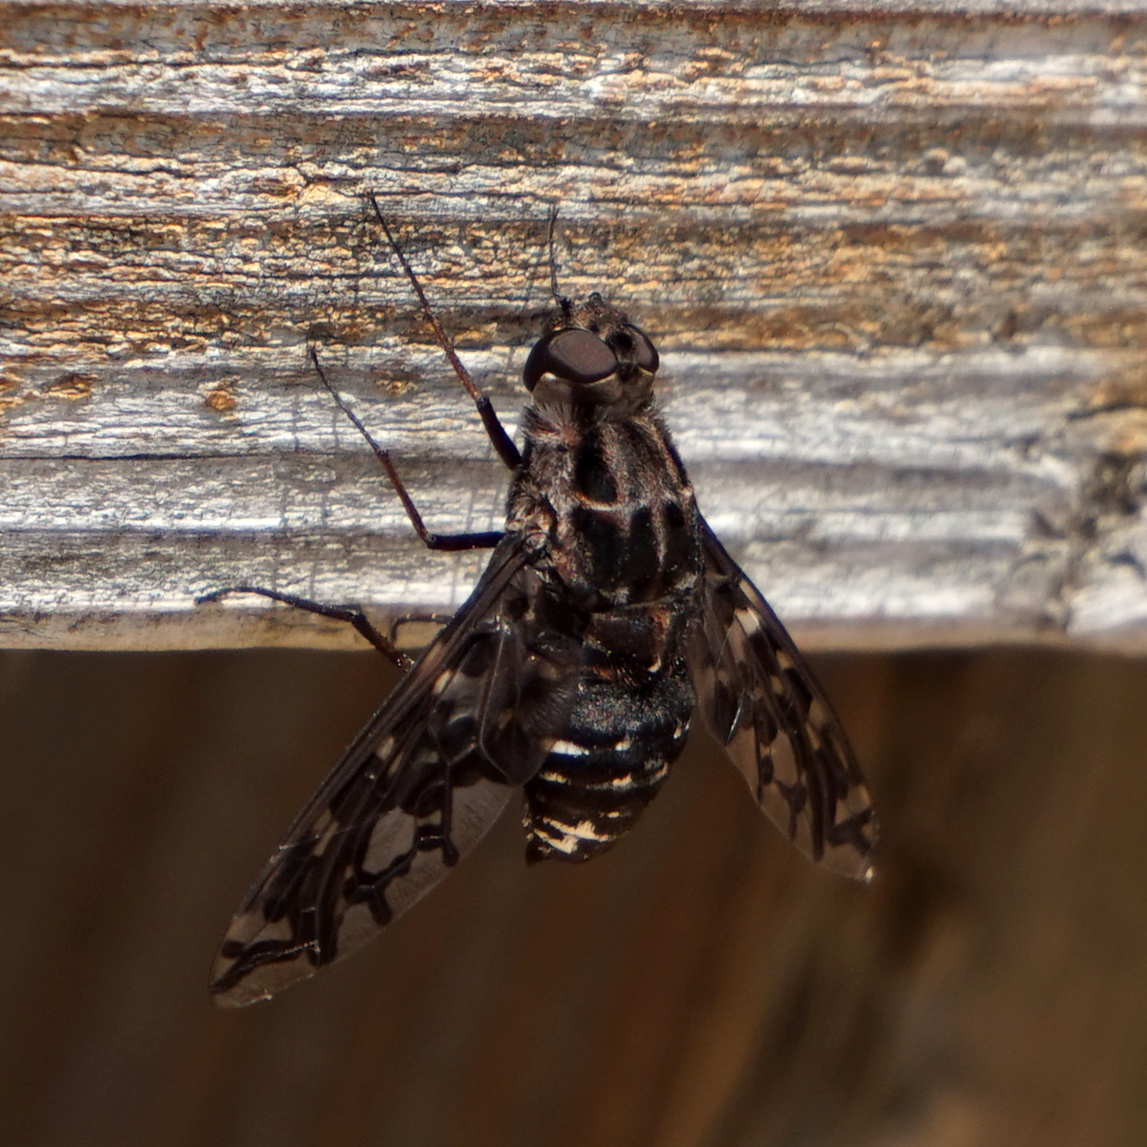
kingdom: Animalia
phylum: Arthropoda
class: Insecta
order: Diptera
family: Bombyliidae
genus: Xenox
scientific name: Xenox tigrinus
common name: Tiger bee fly
